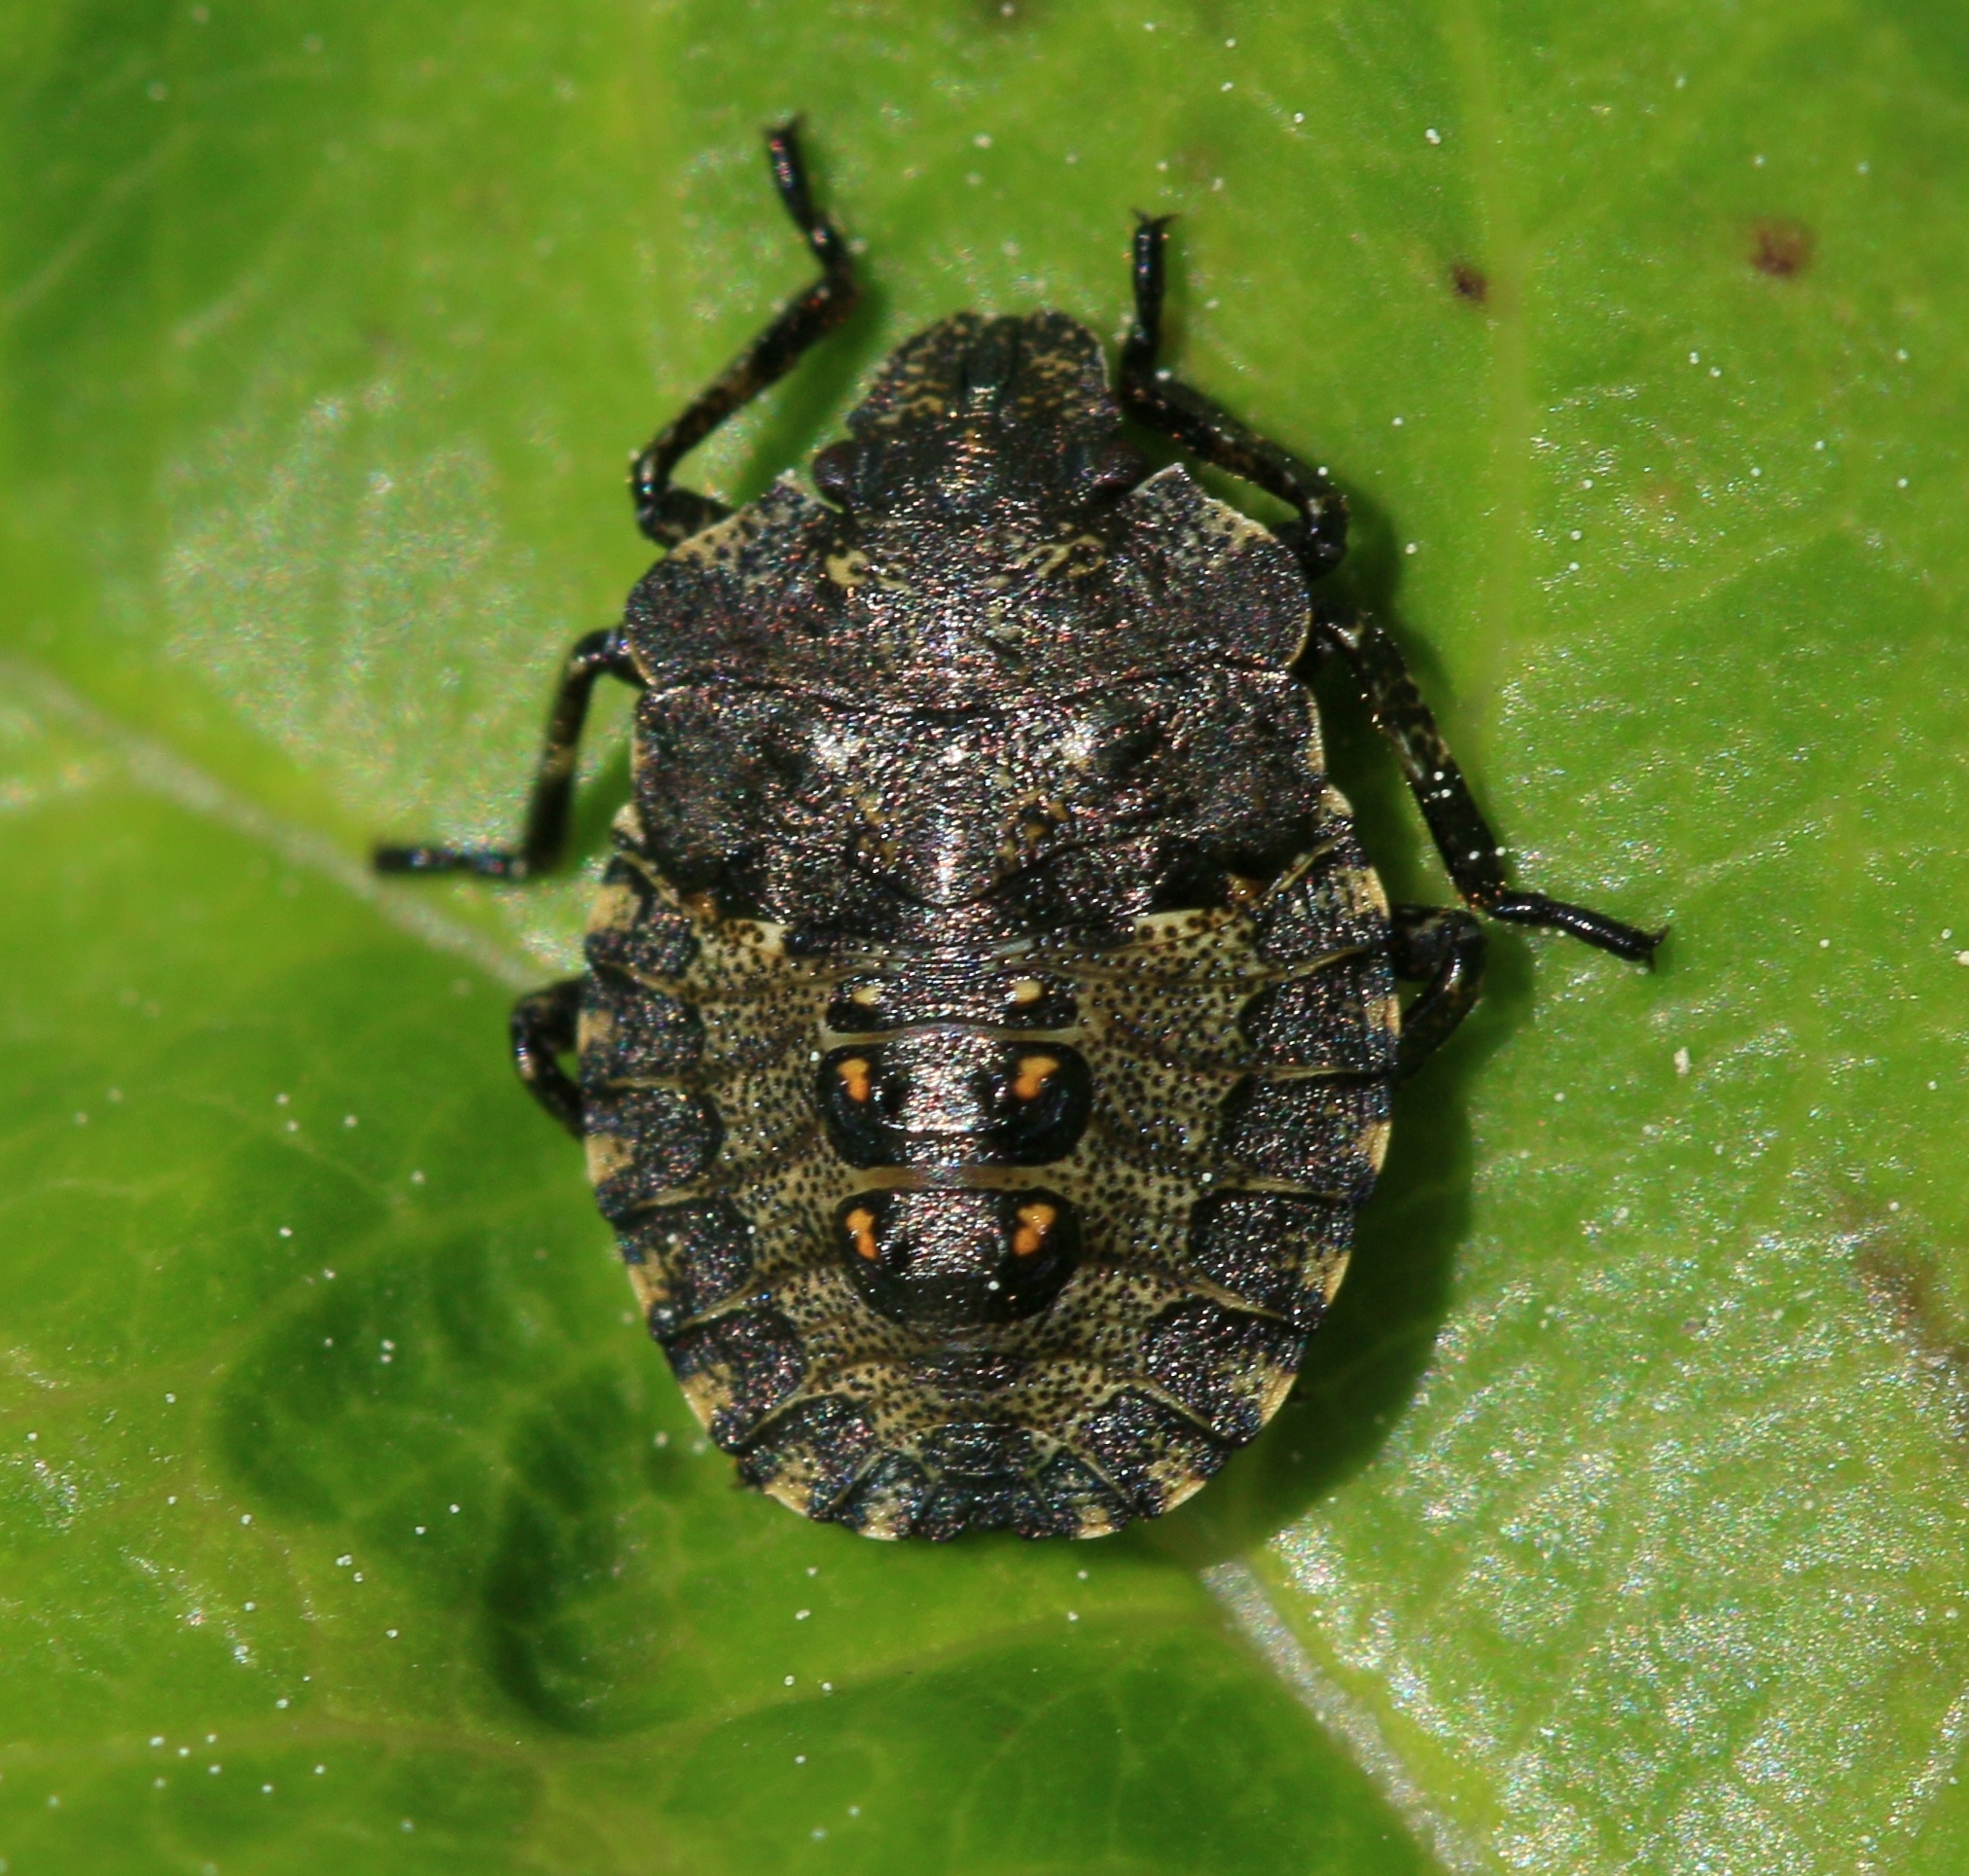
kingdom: Animalia
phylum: Arthropoda
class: Insecta
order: Hemiptera
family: Pentatomidae
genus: Pentatoma
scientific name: Pentatoma rufipes
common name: Forest bug
